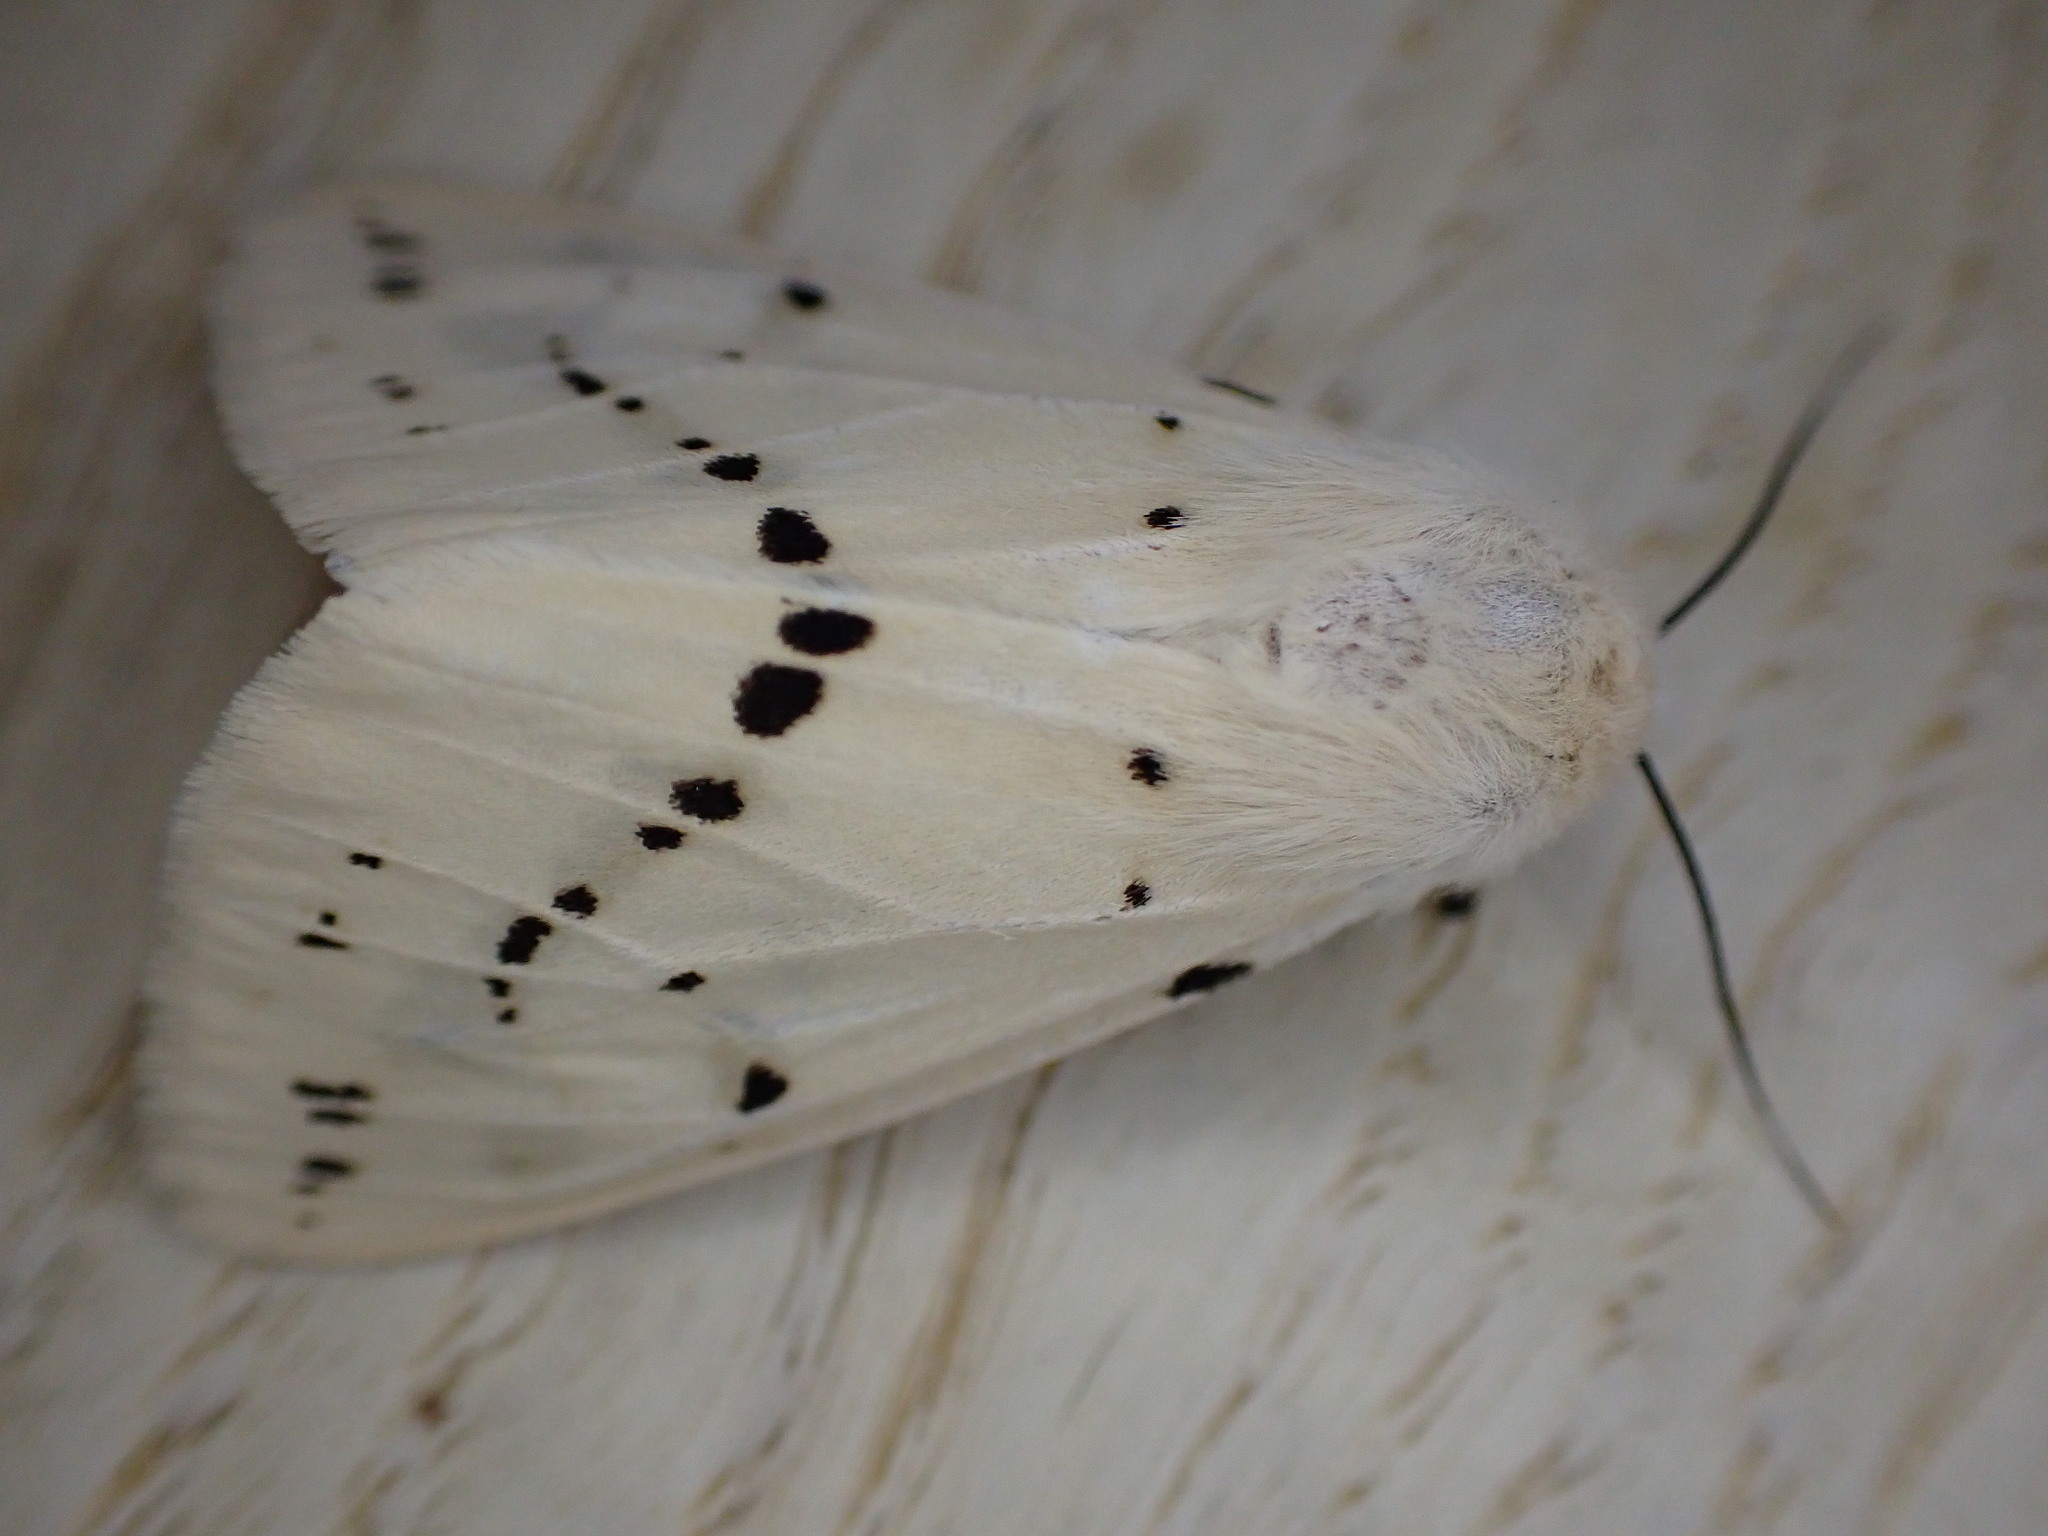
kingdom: Animalia
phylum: Arthropoda
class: Insecta
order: Lepidoptera
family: Erebidae
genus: Spilarctia
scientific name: Spilarctia lutea
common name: Buff ermine
